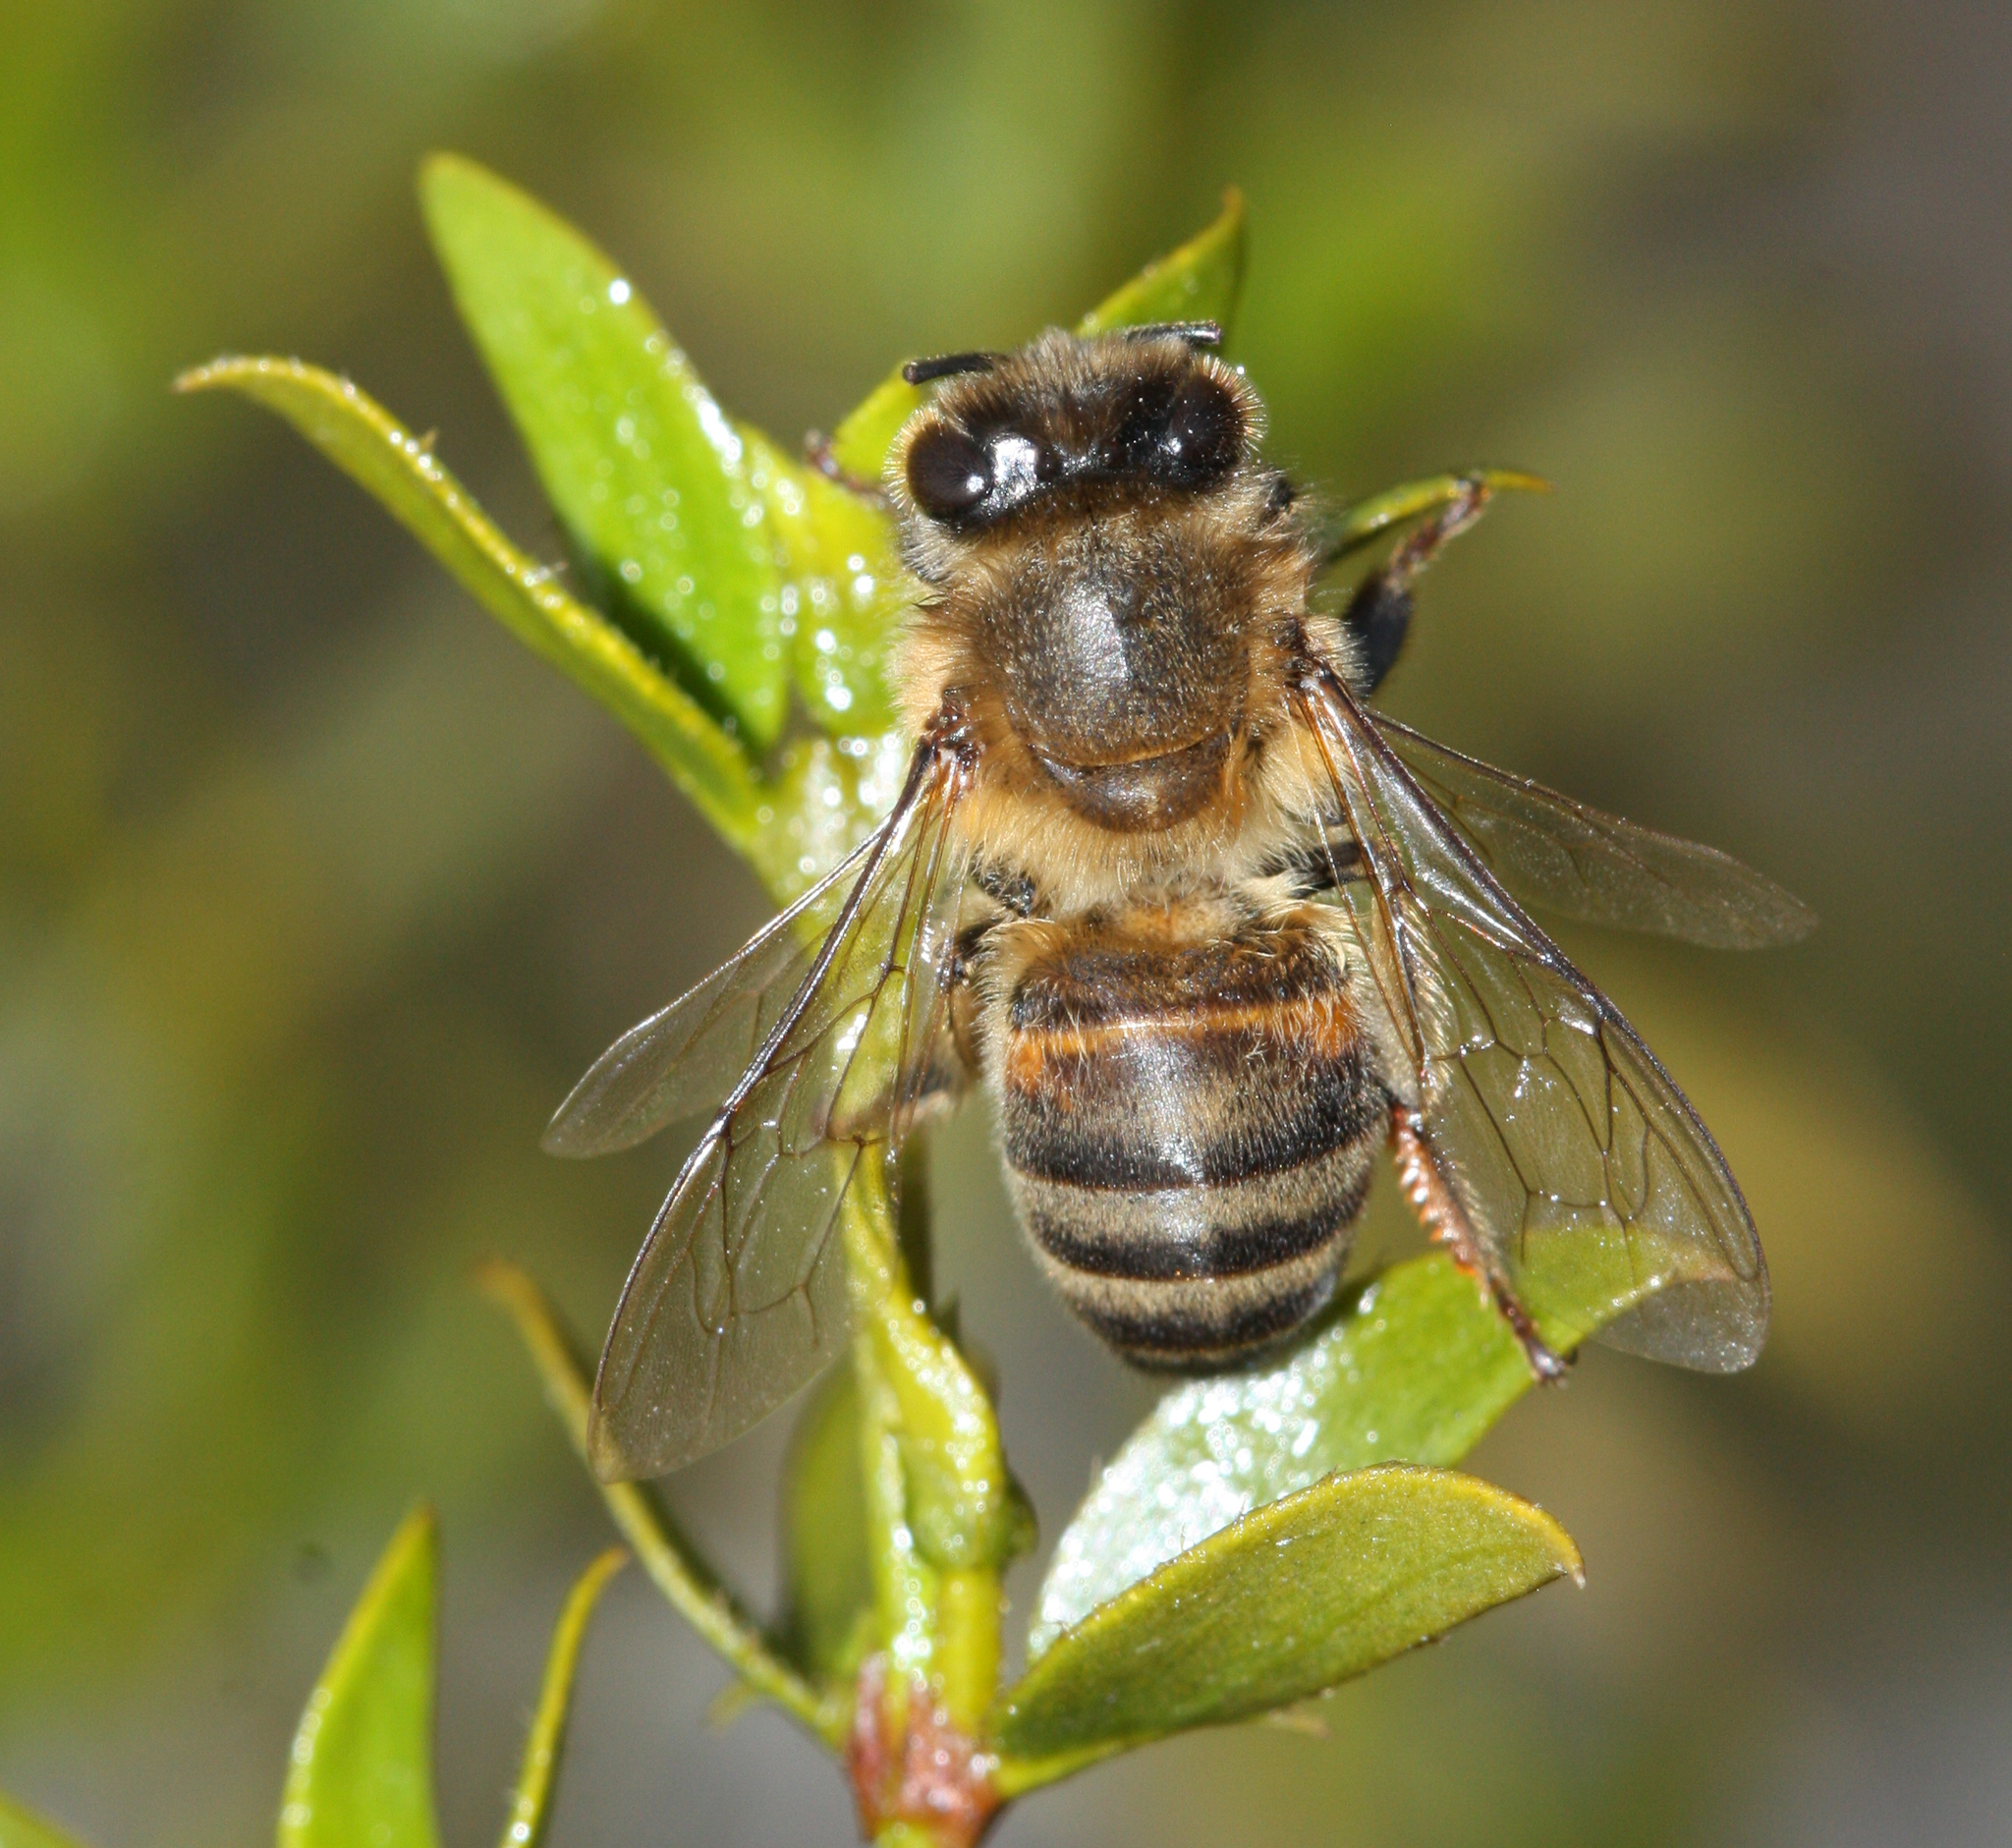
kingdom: Animalia
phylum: Arthropoda
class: Insecta
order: Hymenoptera
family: Apidae
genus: Apis
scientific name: Apis mellifera
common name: Honey bee
